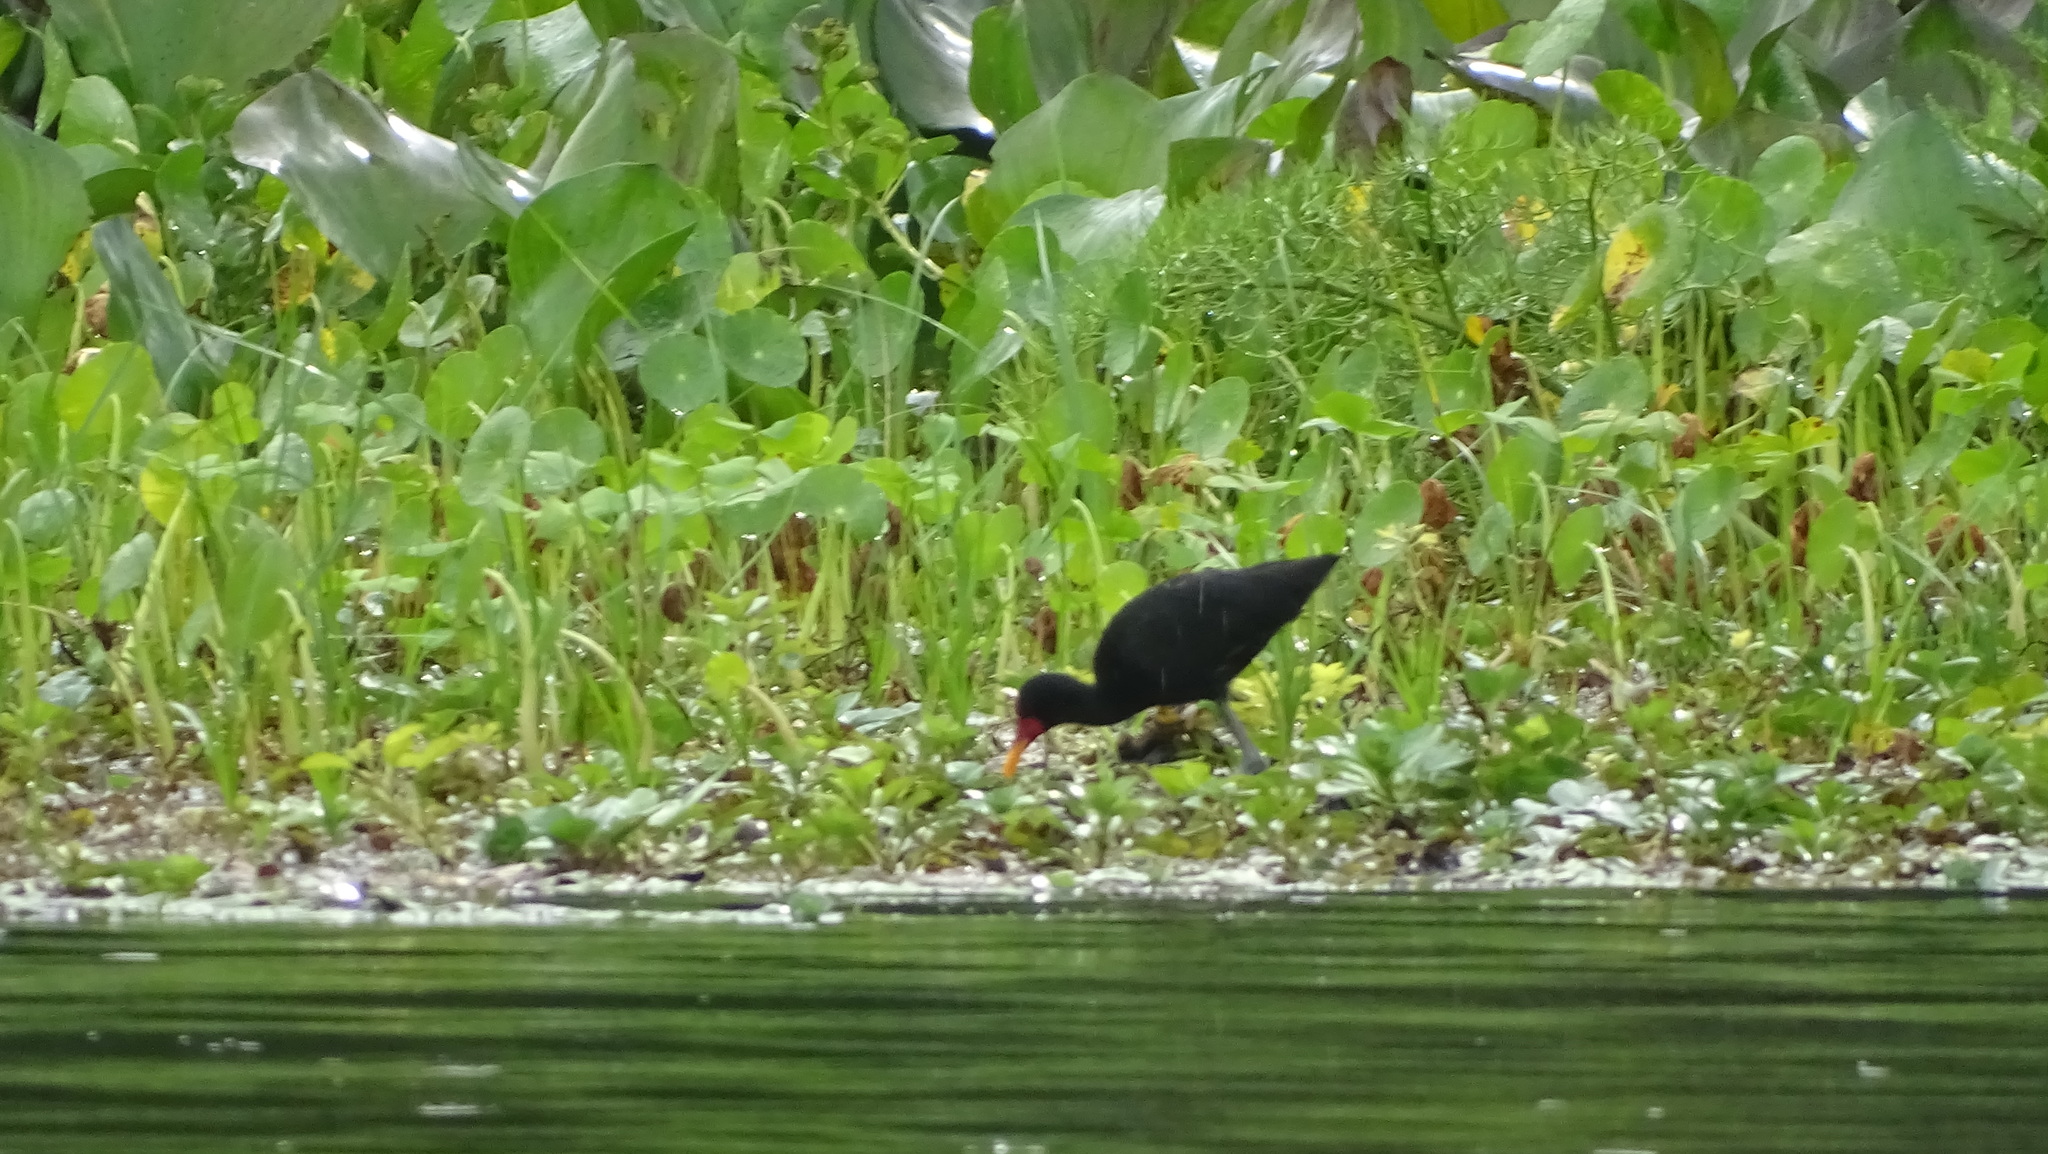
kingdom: Animalia
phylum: Chordata
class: Aves
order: Charadriiformes
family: Jacanidae
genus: Jacana
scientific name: Jacana jacana
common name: Wattled jacana
